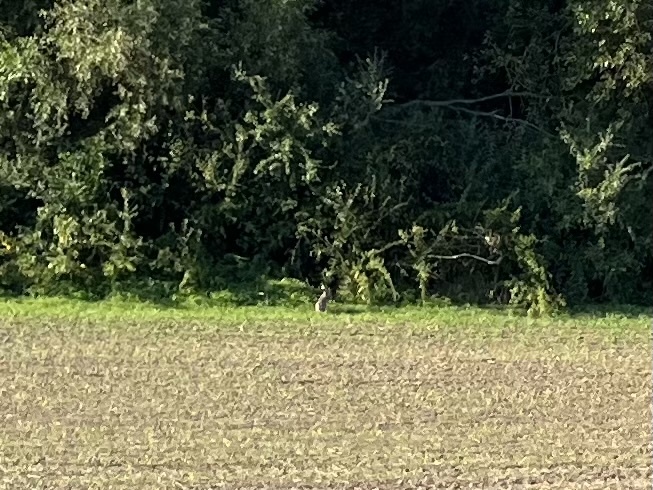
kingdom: Animalia
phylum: Chordata
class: Mammalia
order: Lagomorpha
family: Leporidae
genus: Lepus
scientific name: Lepus europaeus
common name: European hare
